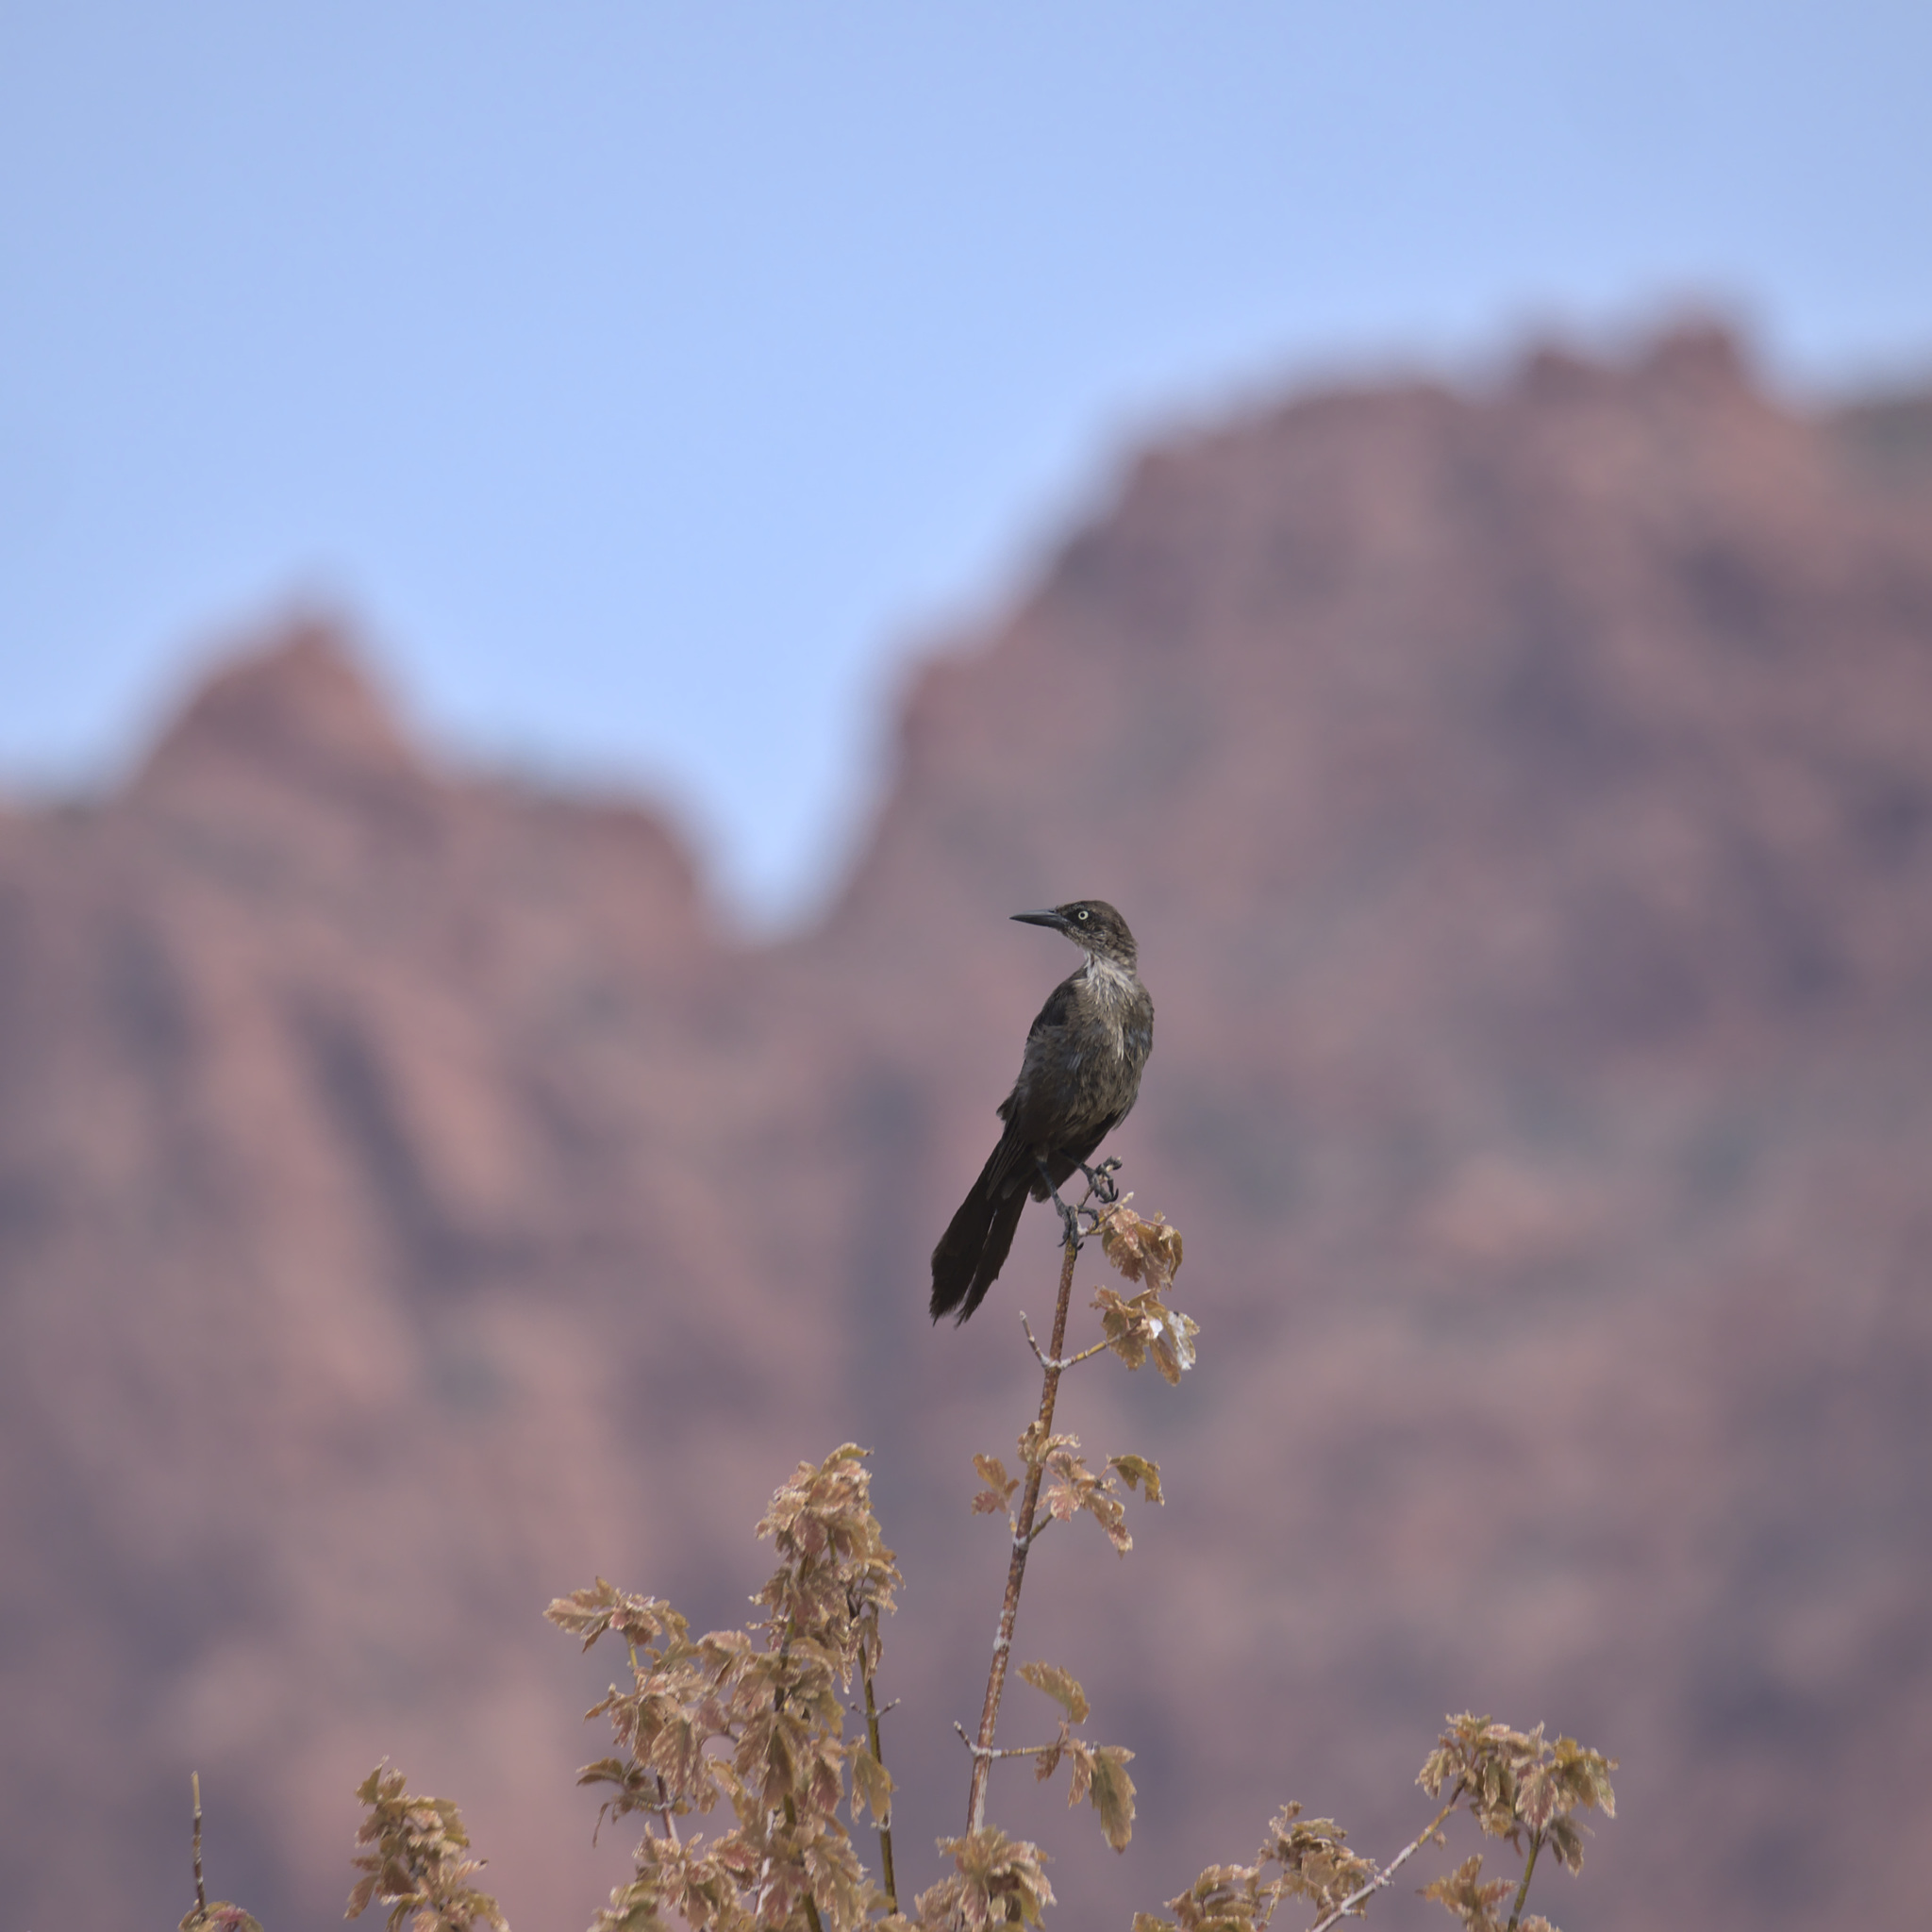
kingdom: Animalia
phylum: Chordata
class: Aves
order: Passeriformes
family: Icteridae
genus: Quiscalus
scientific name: Quiscalus mexicanus
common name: Great-tailed grackle
